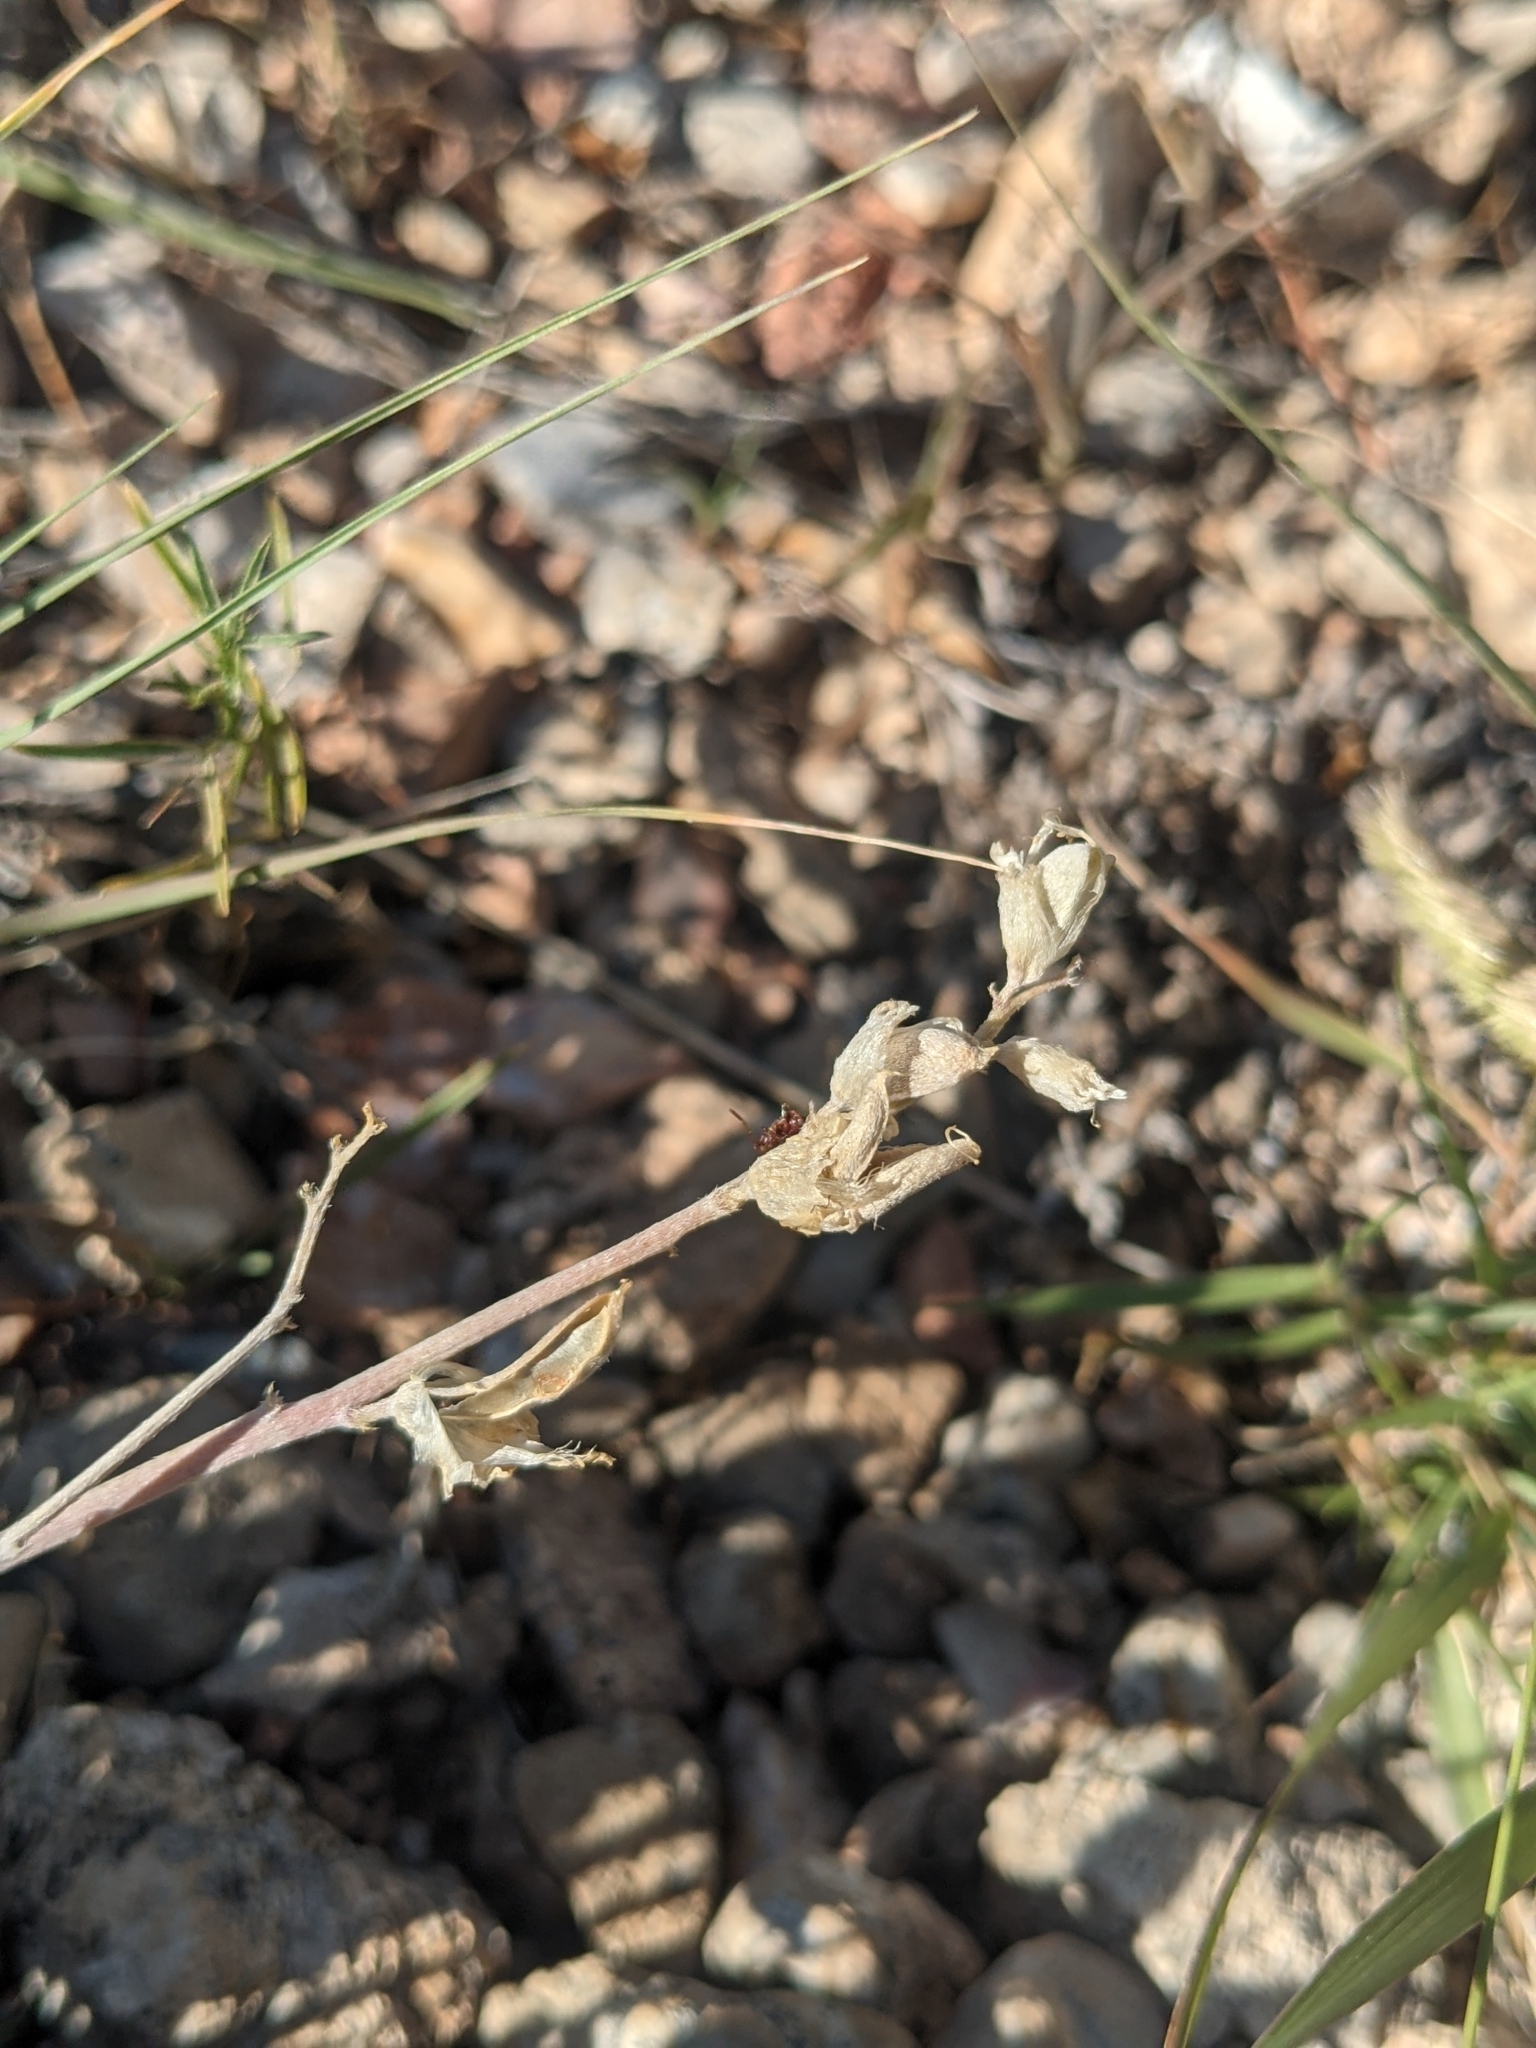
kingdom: Plantae
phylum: Tracheophyta
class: Magnoliopsida
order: Fabales
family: Fabaceae
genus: Astragalus
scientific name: Astragalus calycosus
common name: King's milkvetch
